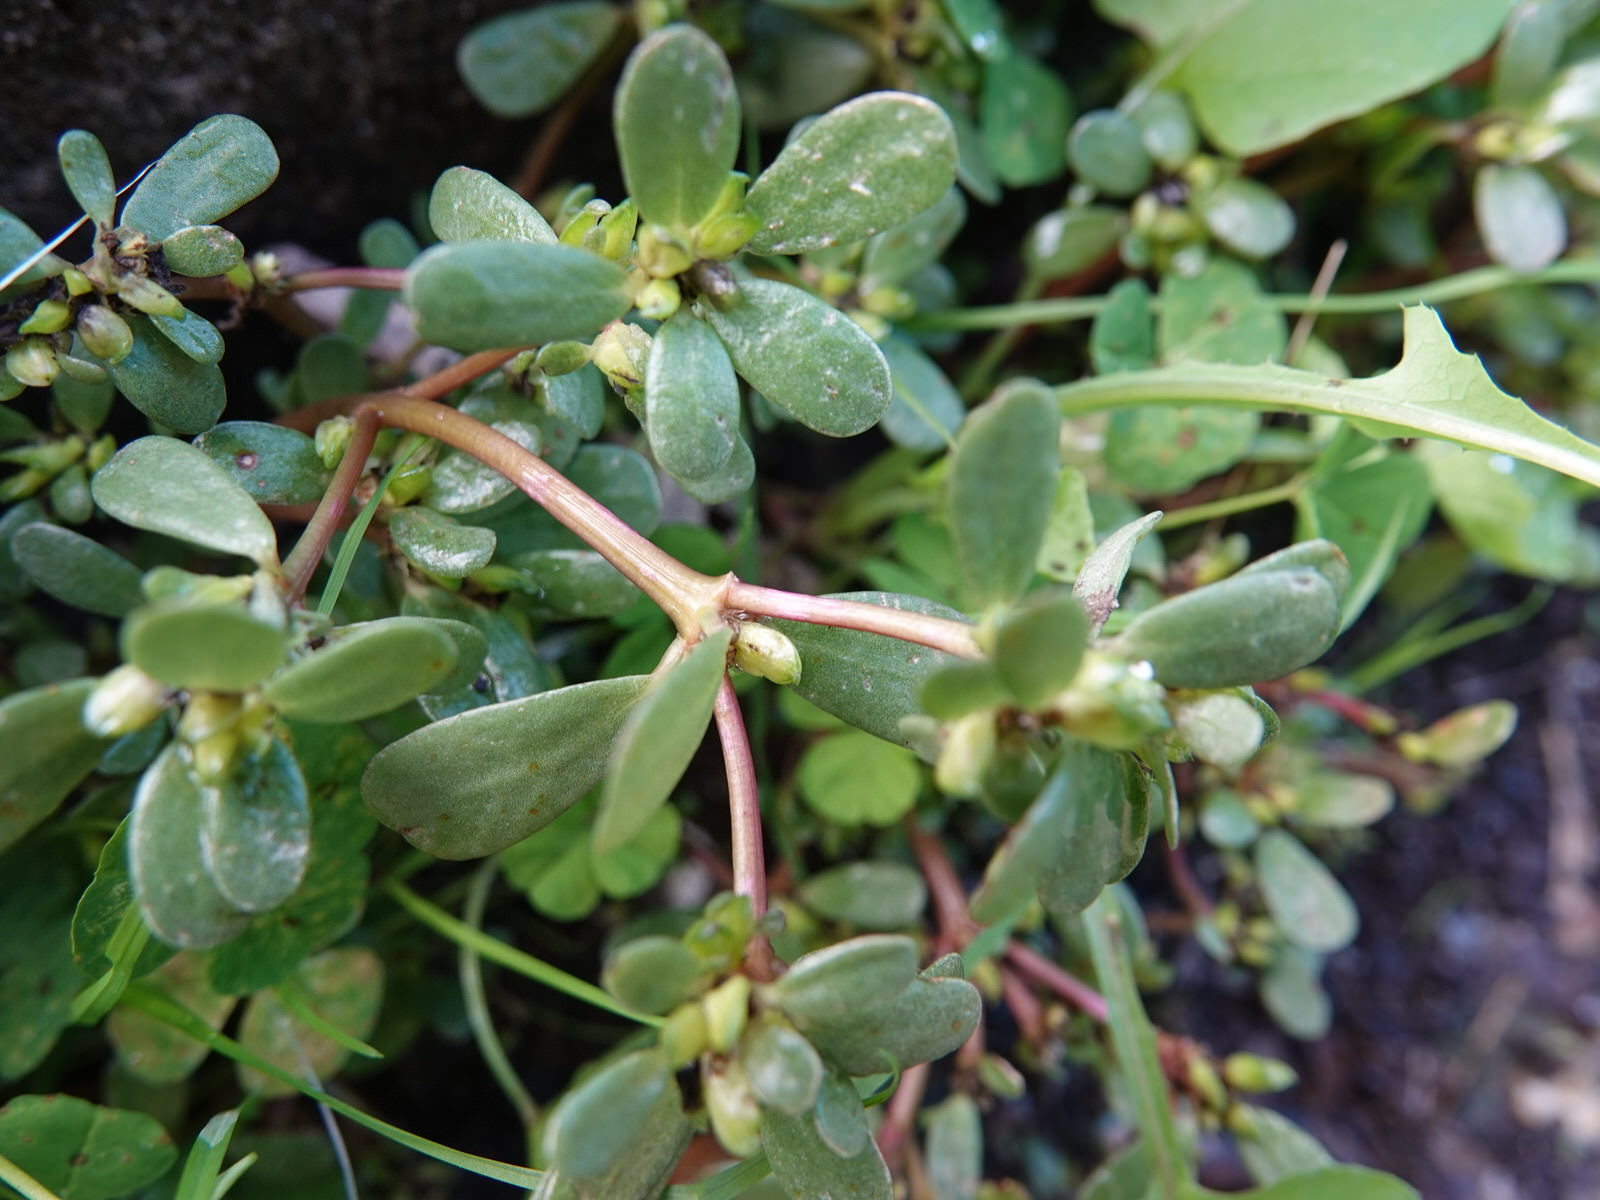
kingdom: Plantae
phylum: Tracheophyta
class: Magnoliopsida
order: Caryophyllales
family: Portulacaceae
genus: Portulaca
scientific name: Portulaca oleracea
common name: Common purslane
